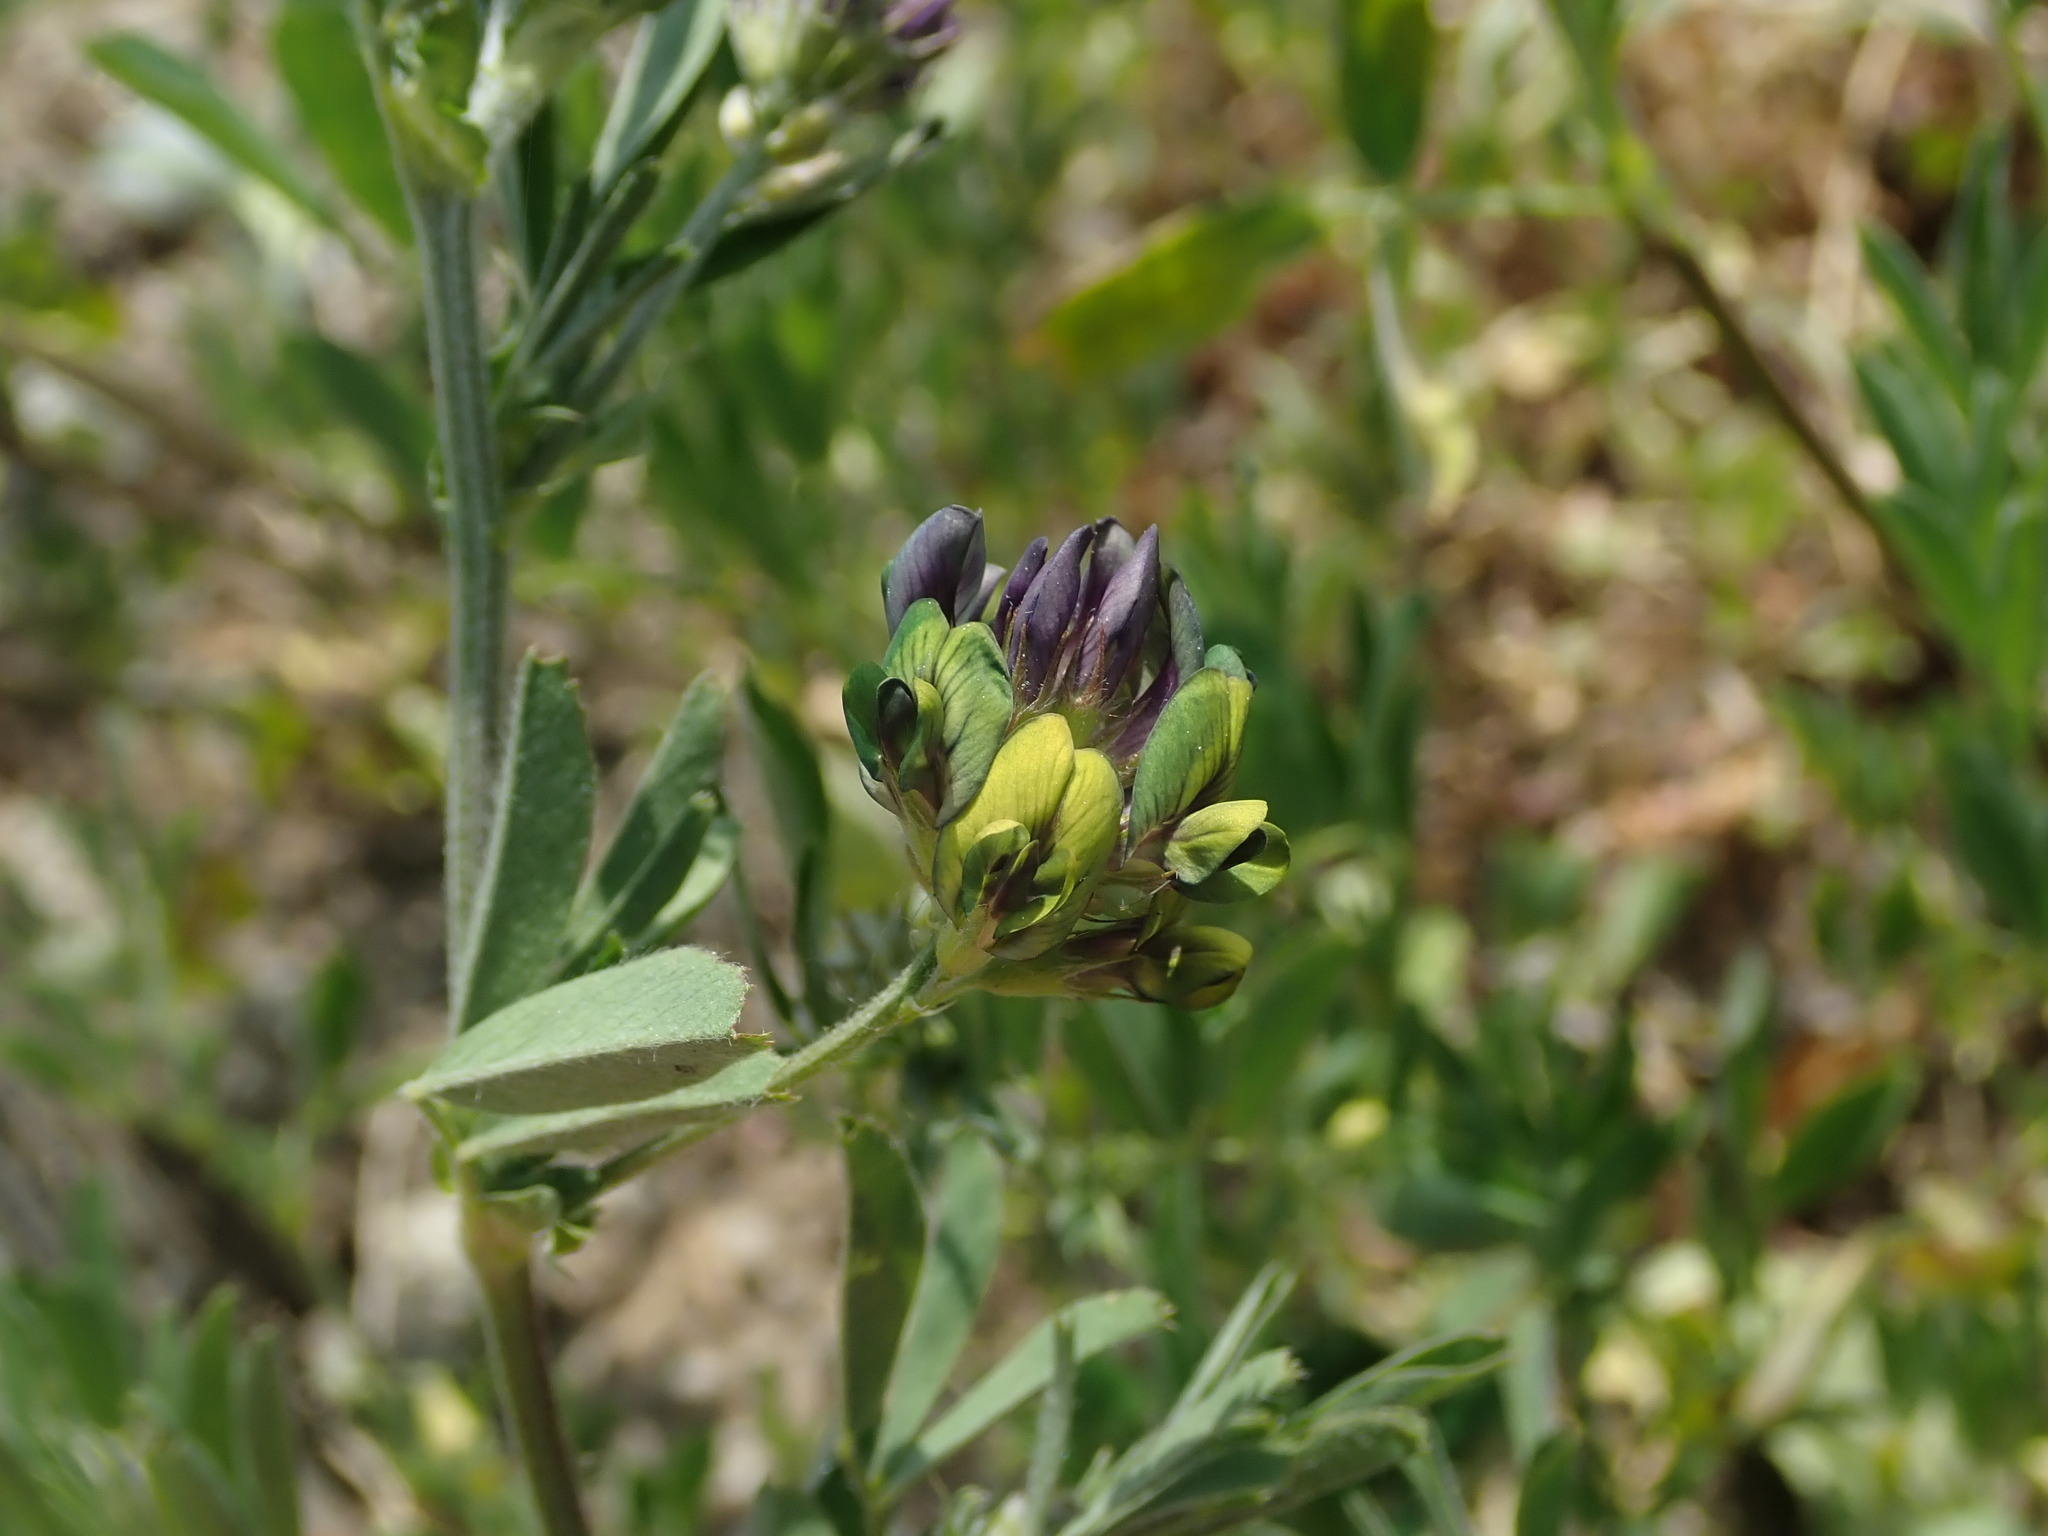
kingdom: Plantae
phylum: Tracheophyta
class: Magnoliopsida
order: Fabales
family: Fabaceae
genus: Medicago
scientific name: Medicago varia
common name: Sand lucerne
